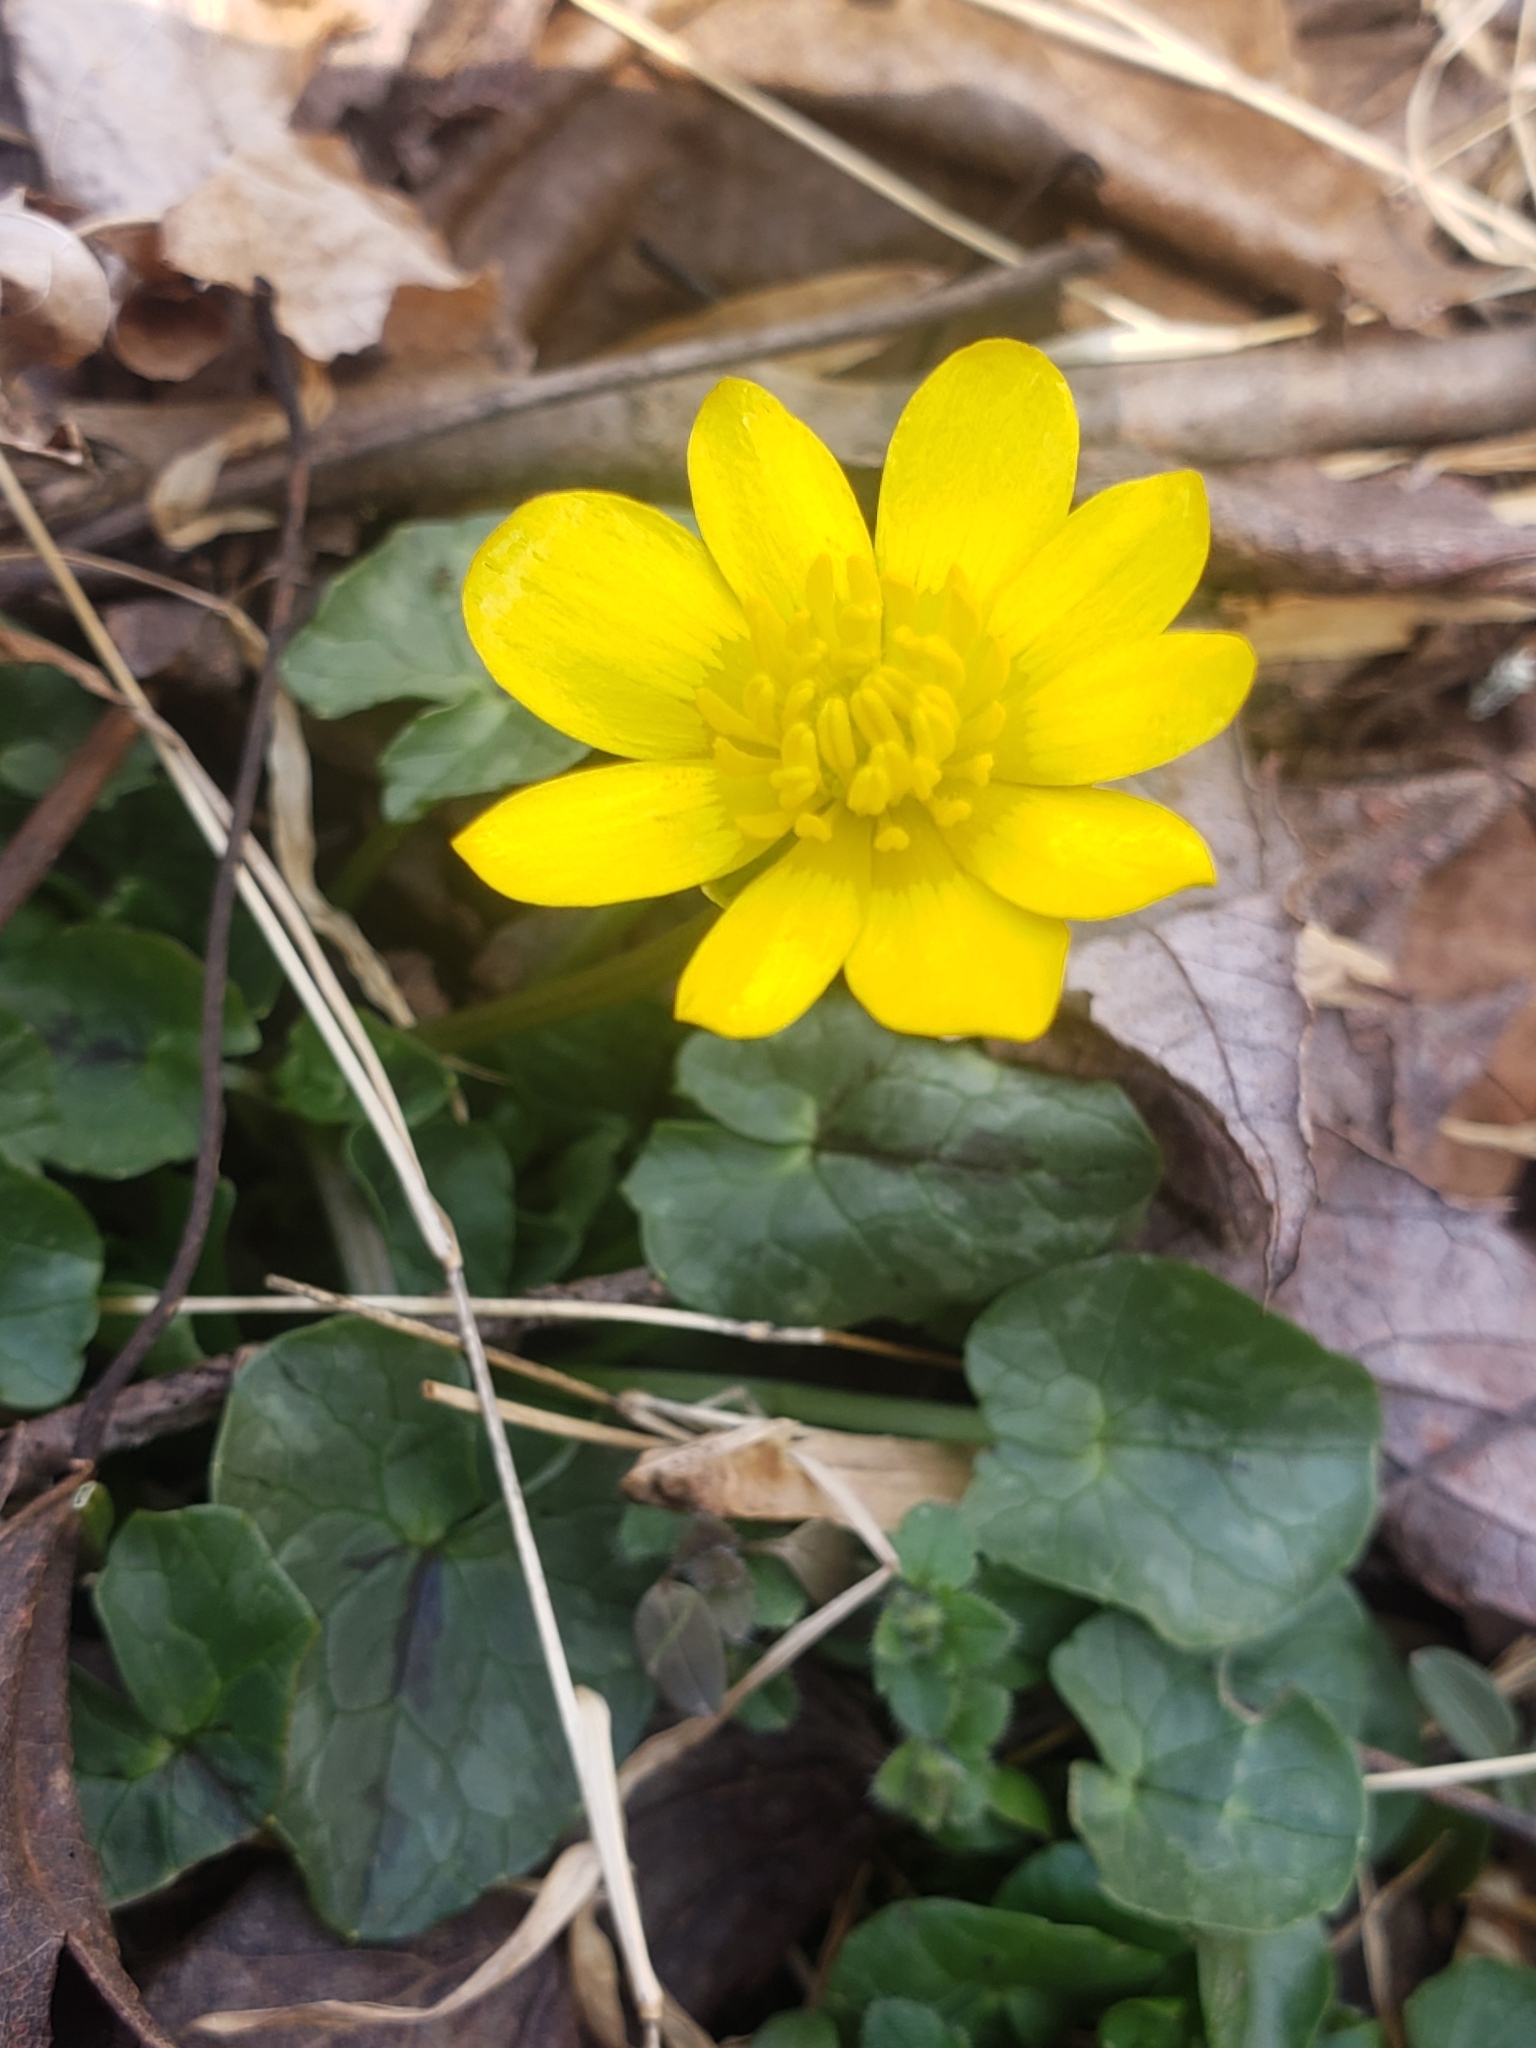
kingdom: Plantae
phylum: Tracheophyta
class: Magnoliopsida
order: Ranunculales
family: Ranunculaceae
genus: Ficaria
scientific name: Ficaria verna
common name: Lesser celandine
